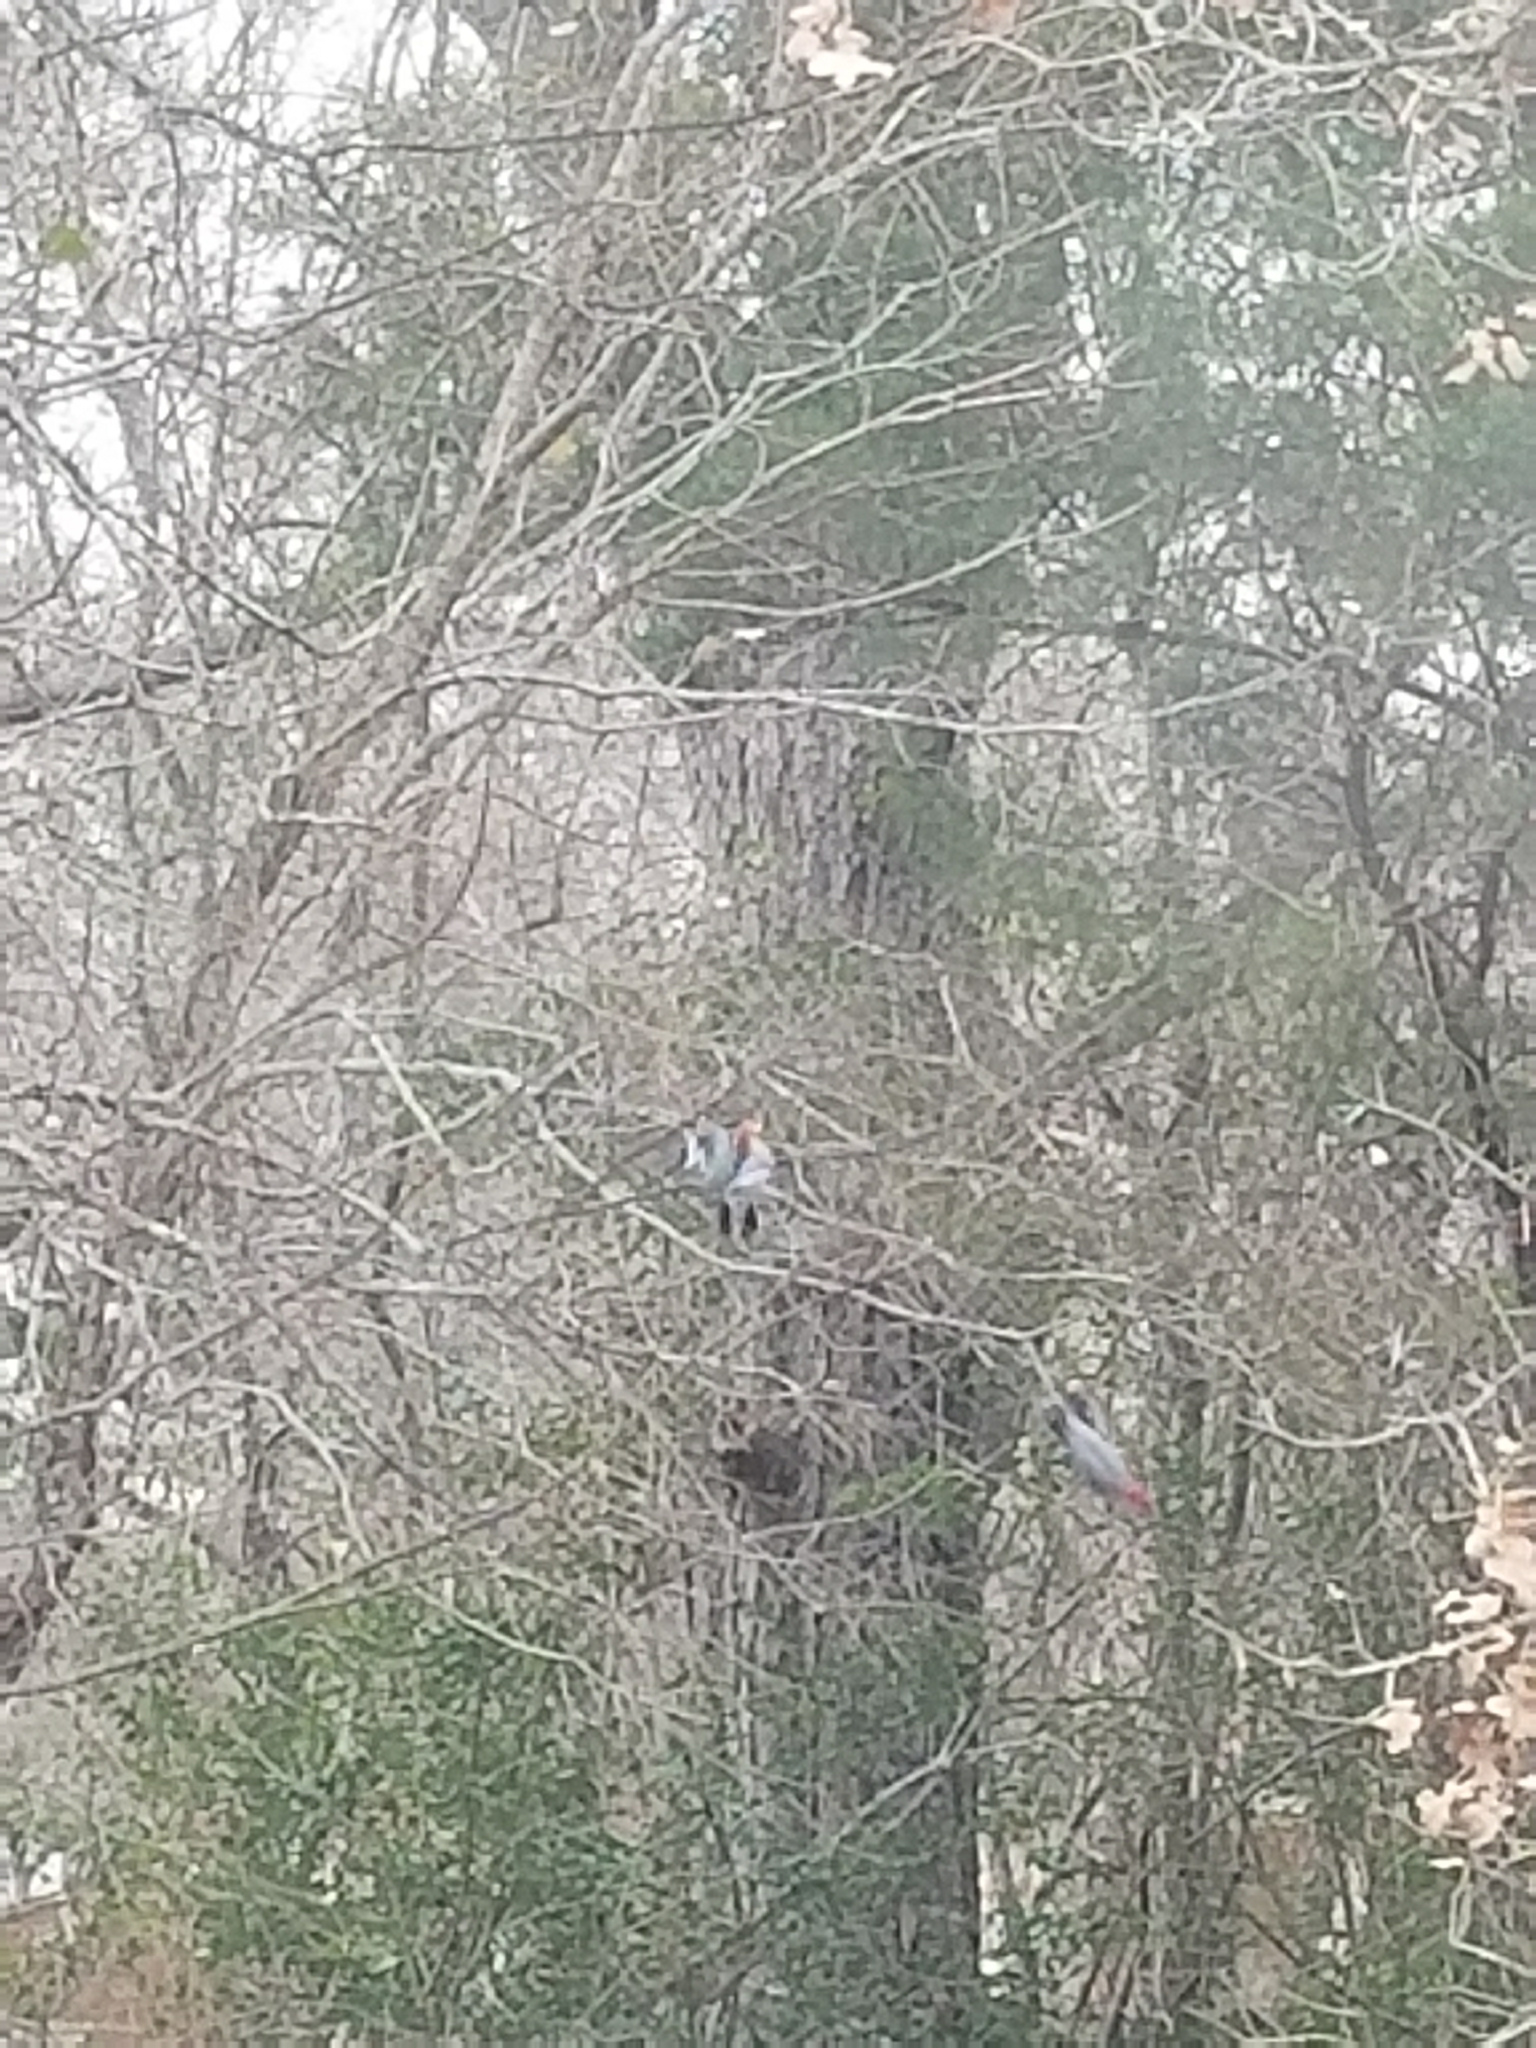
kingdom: Animalia
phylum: Chordata
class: Aves
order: Piciformes
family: Picidae
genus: Melanerpes
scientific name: Melanerpes carolinus
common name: Red-bellied woodpecker
